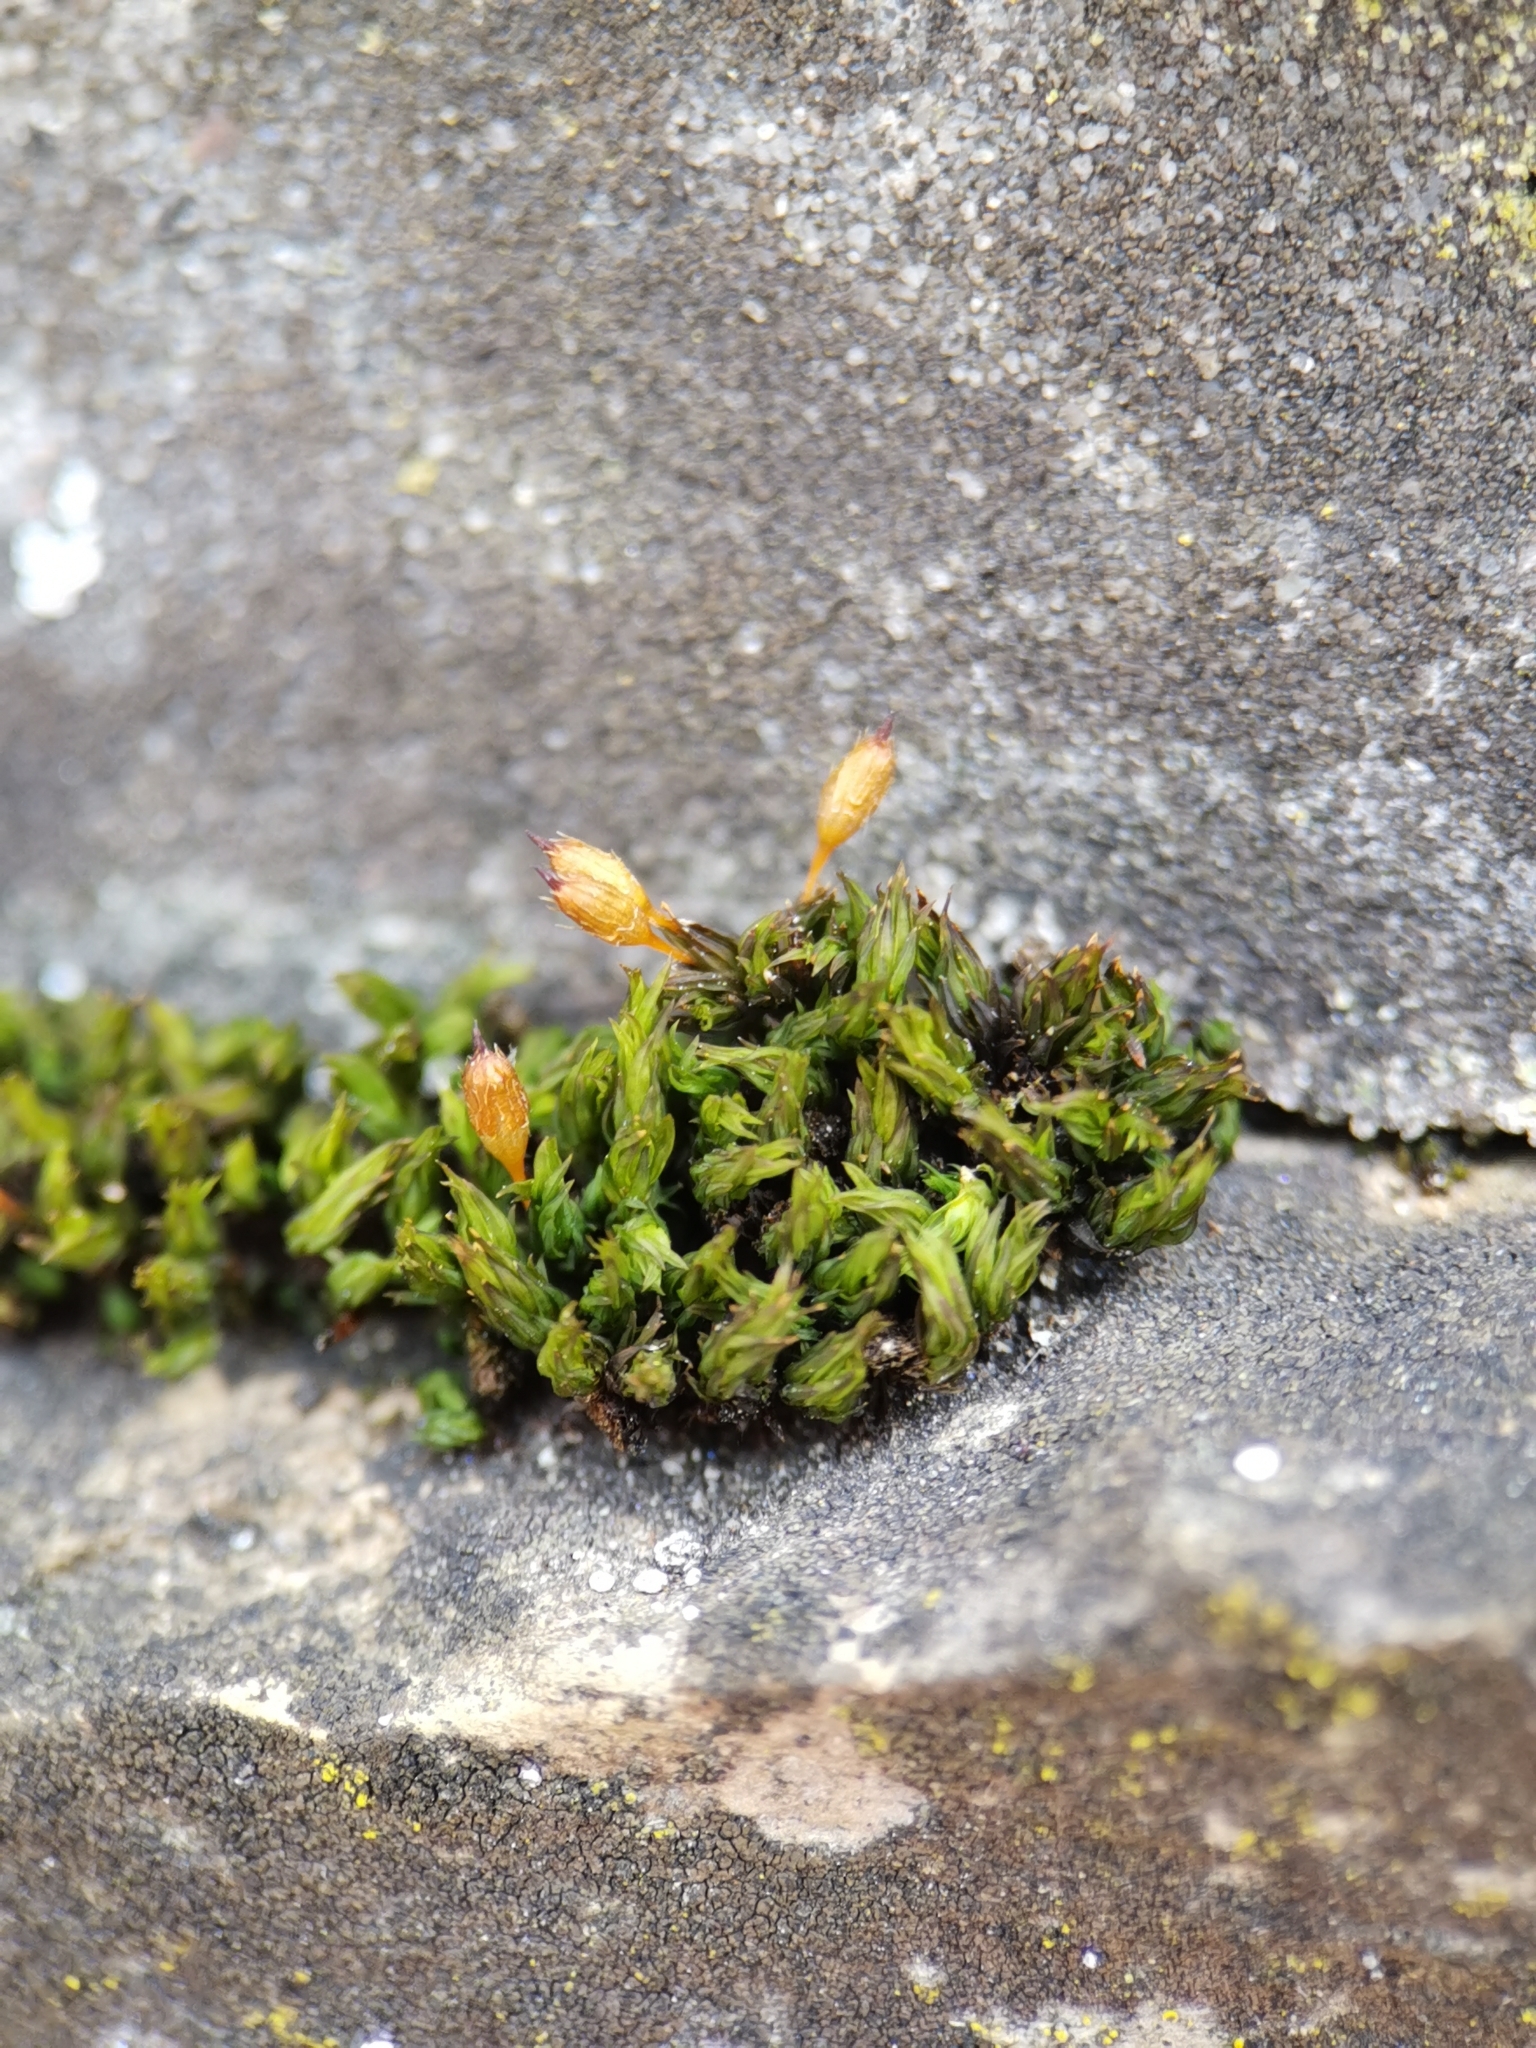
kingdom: Plantae
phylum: Bryophyta
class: Bryopsida
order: Orthotrichales
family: Orthotrichaceae
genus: Orthotrichum
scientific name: Orthotrichum anomalum
